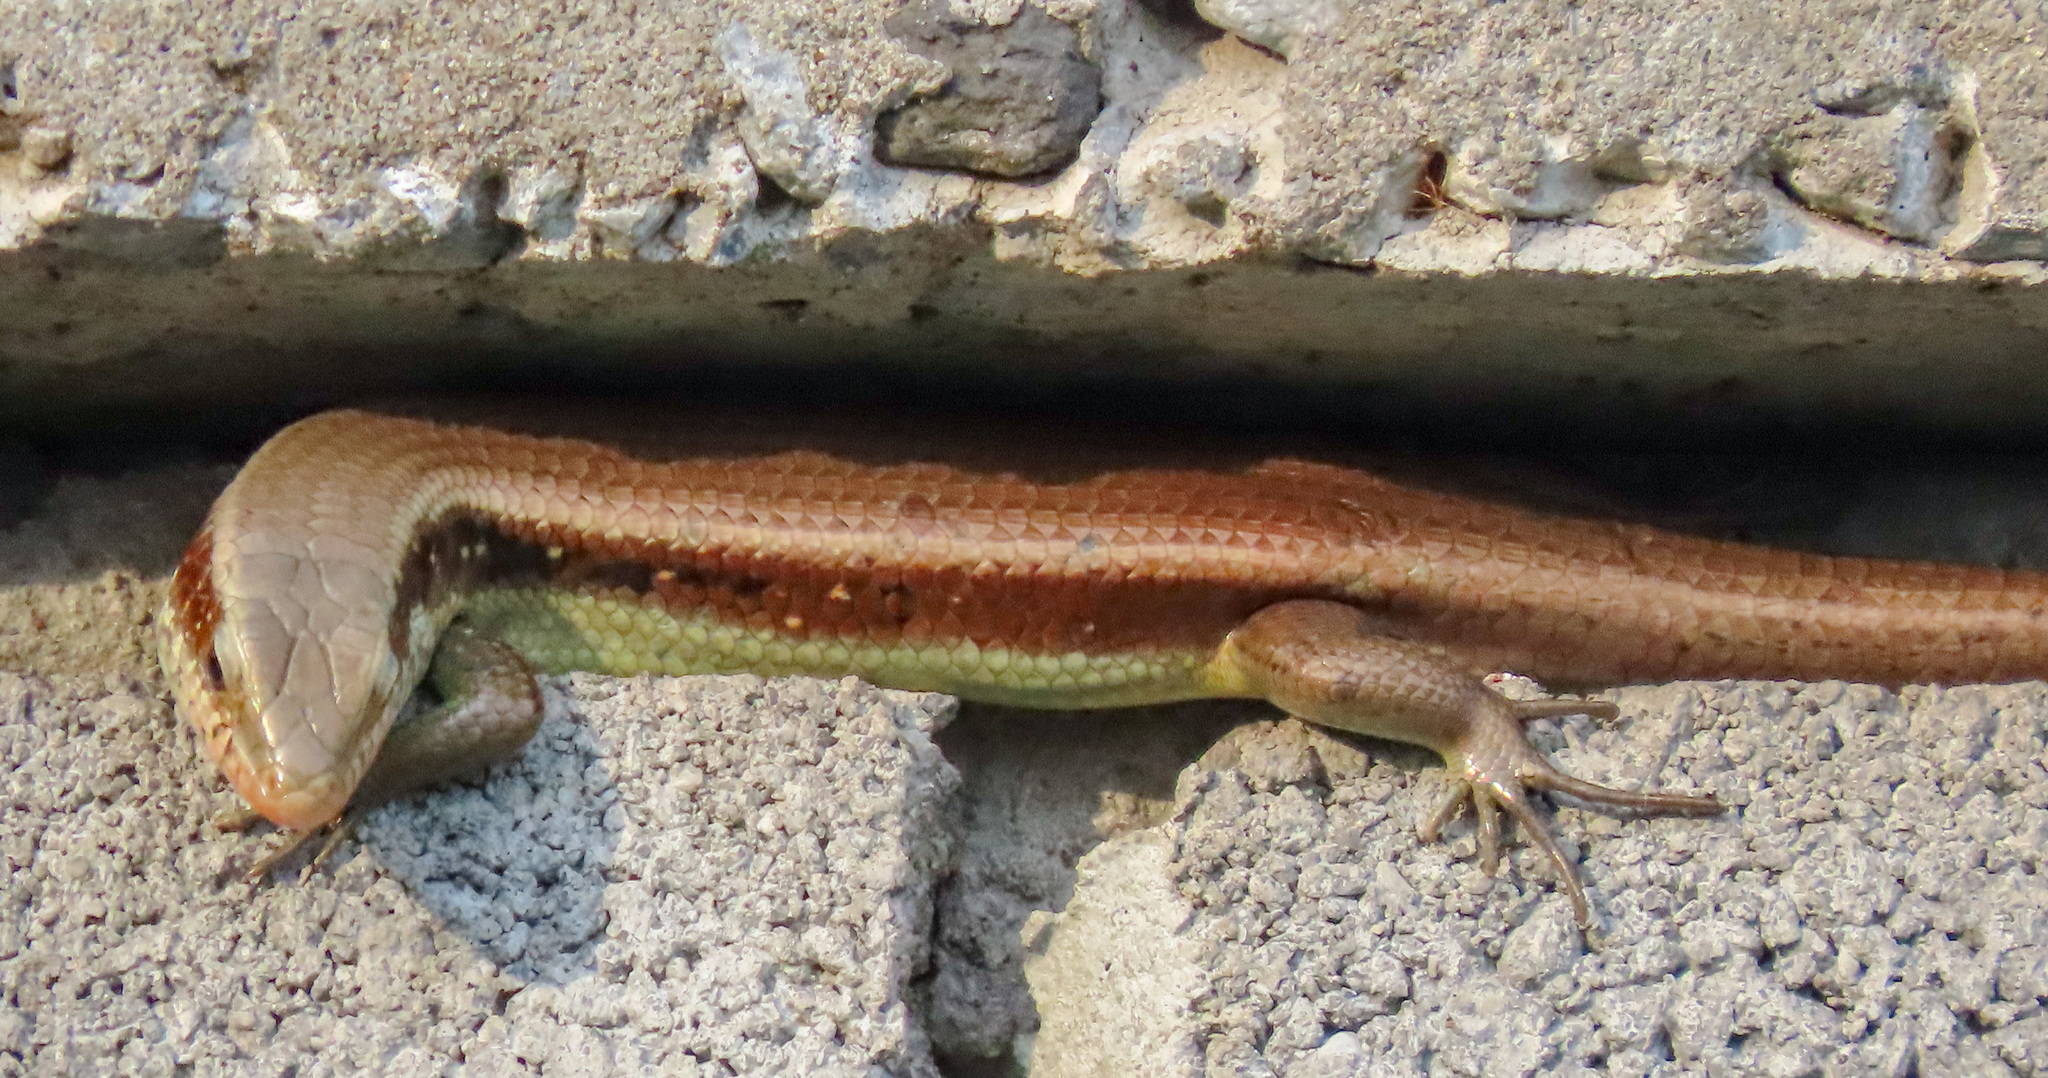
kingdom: Animalia
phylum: Chordata
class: Squamata
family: Scincidae
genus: Eutropis
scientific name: Eutropis longicaudata
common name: Long-tailed sun skink
